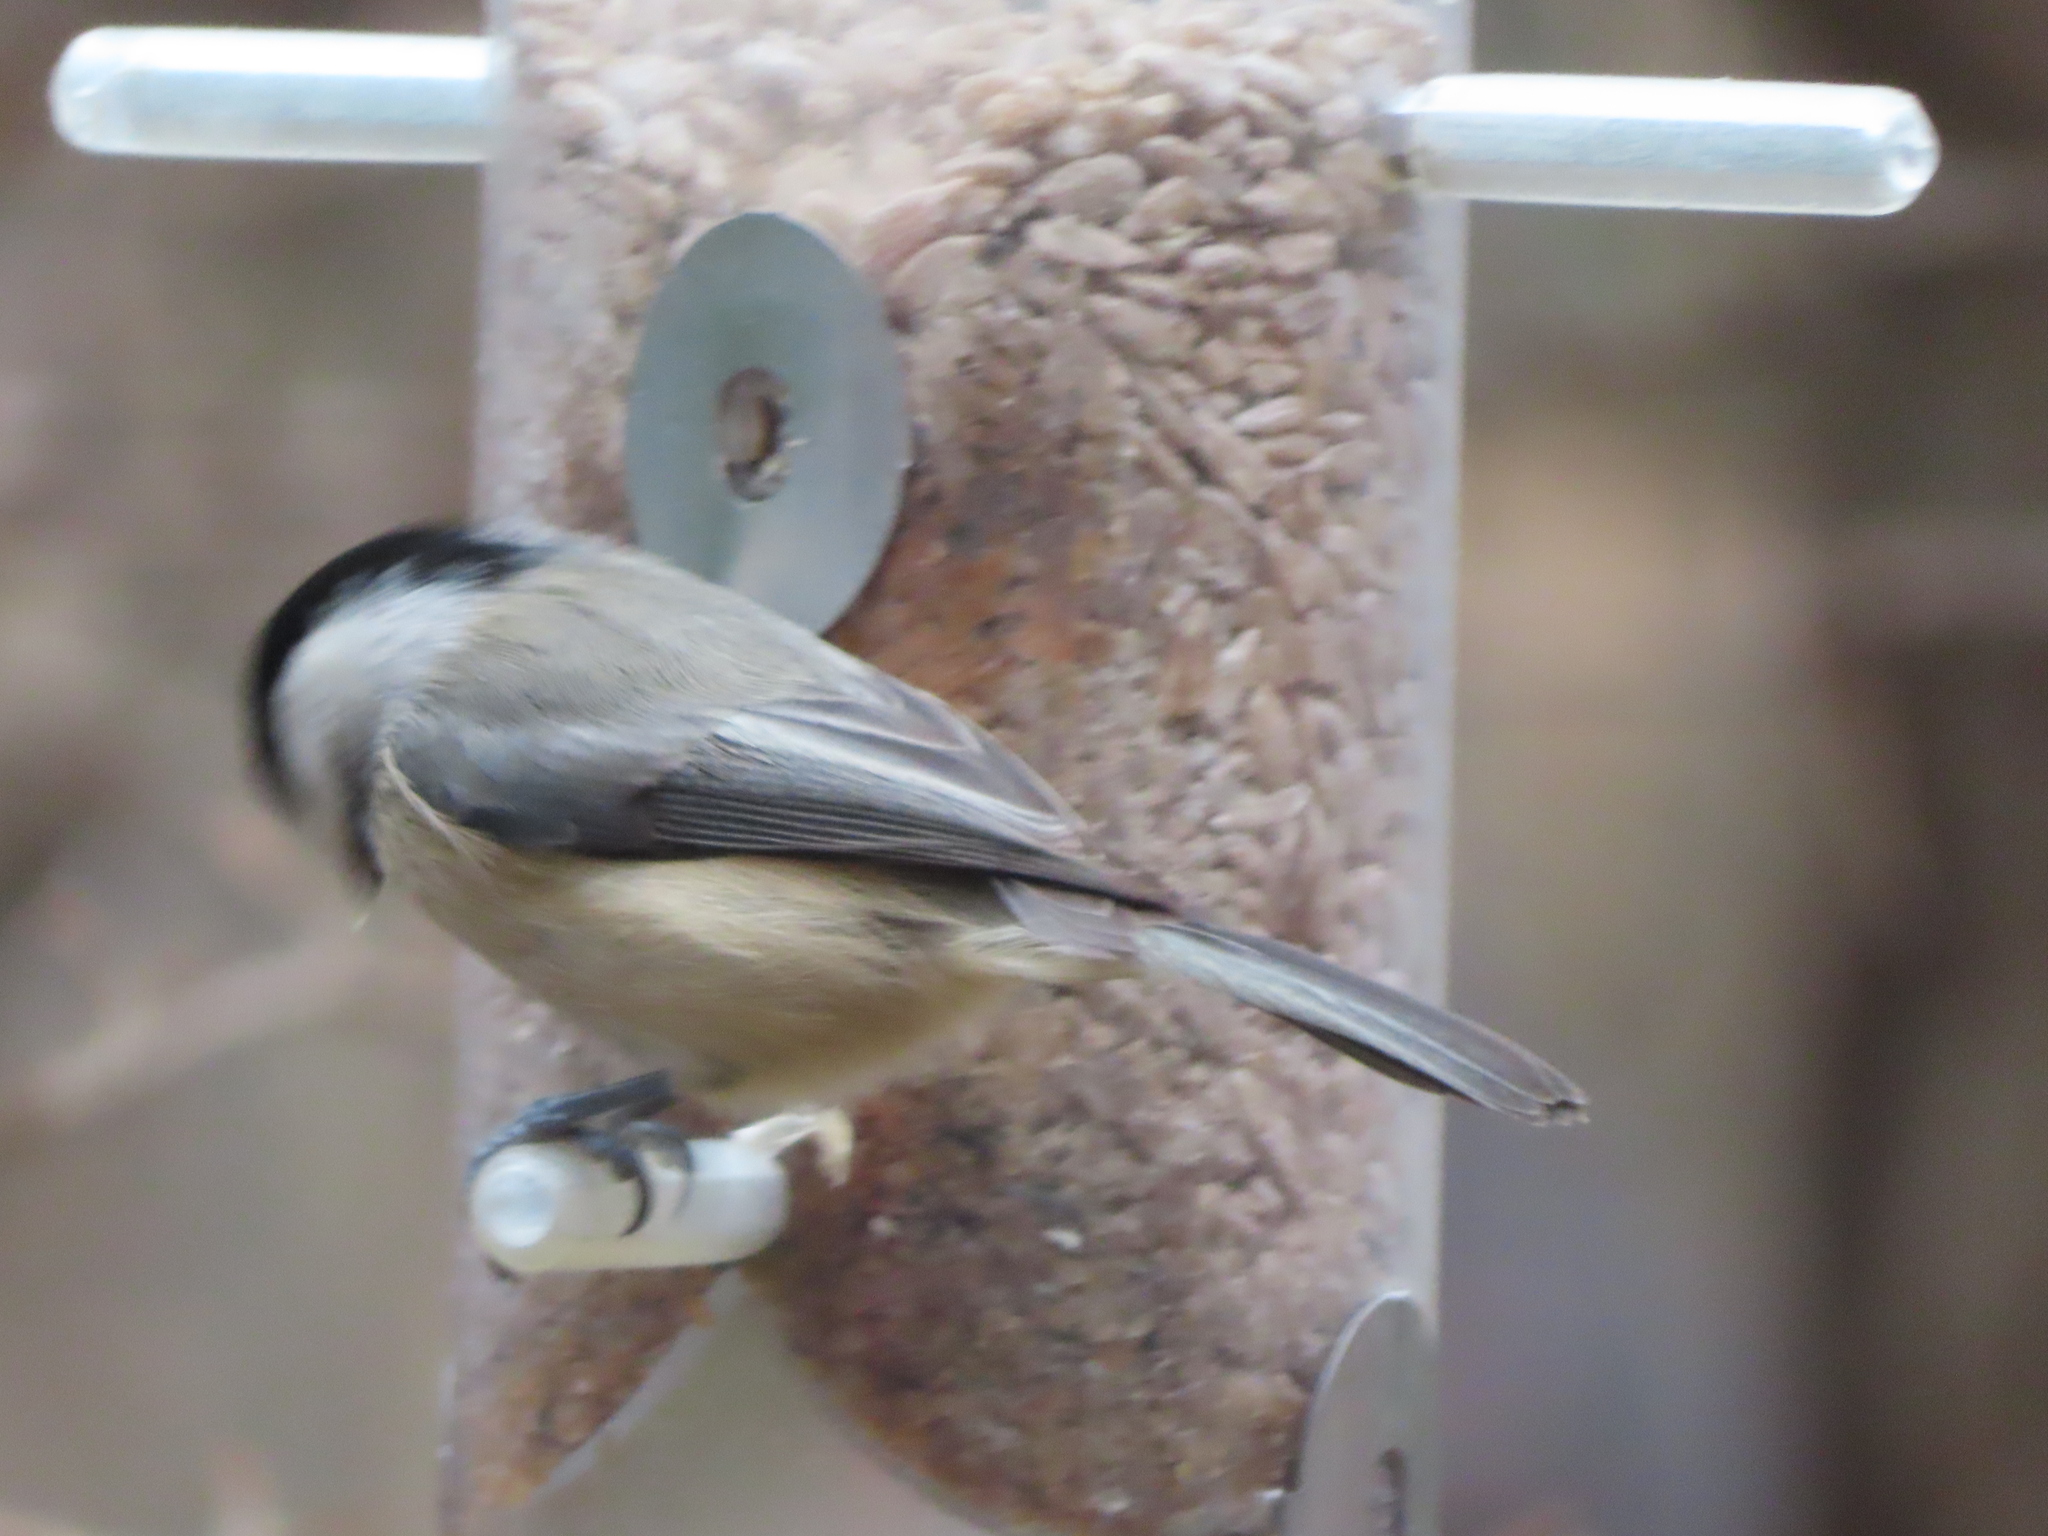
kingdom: Animalia
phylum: Chordata
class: Aves
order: Passeriformes
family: Paridae
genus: Poecile
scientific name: Poecile carolinensis
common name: Carolina chickadee
